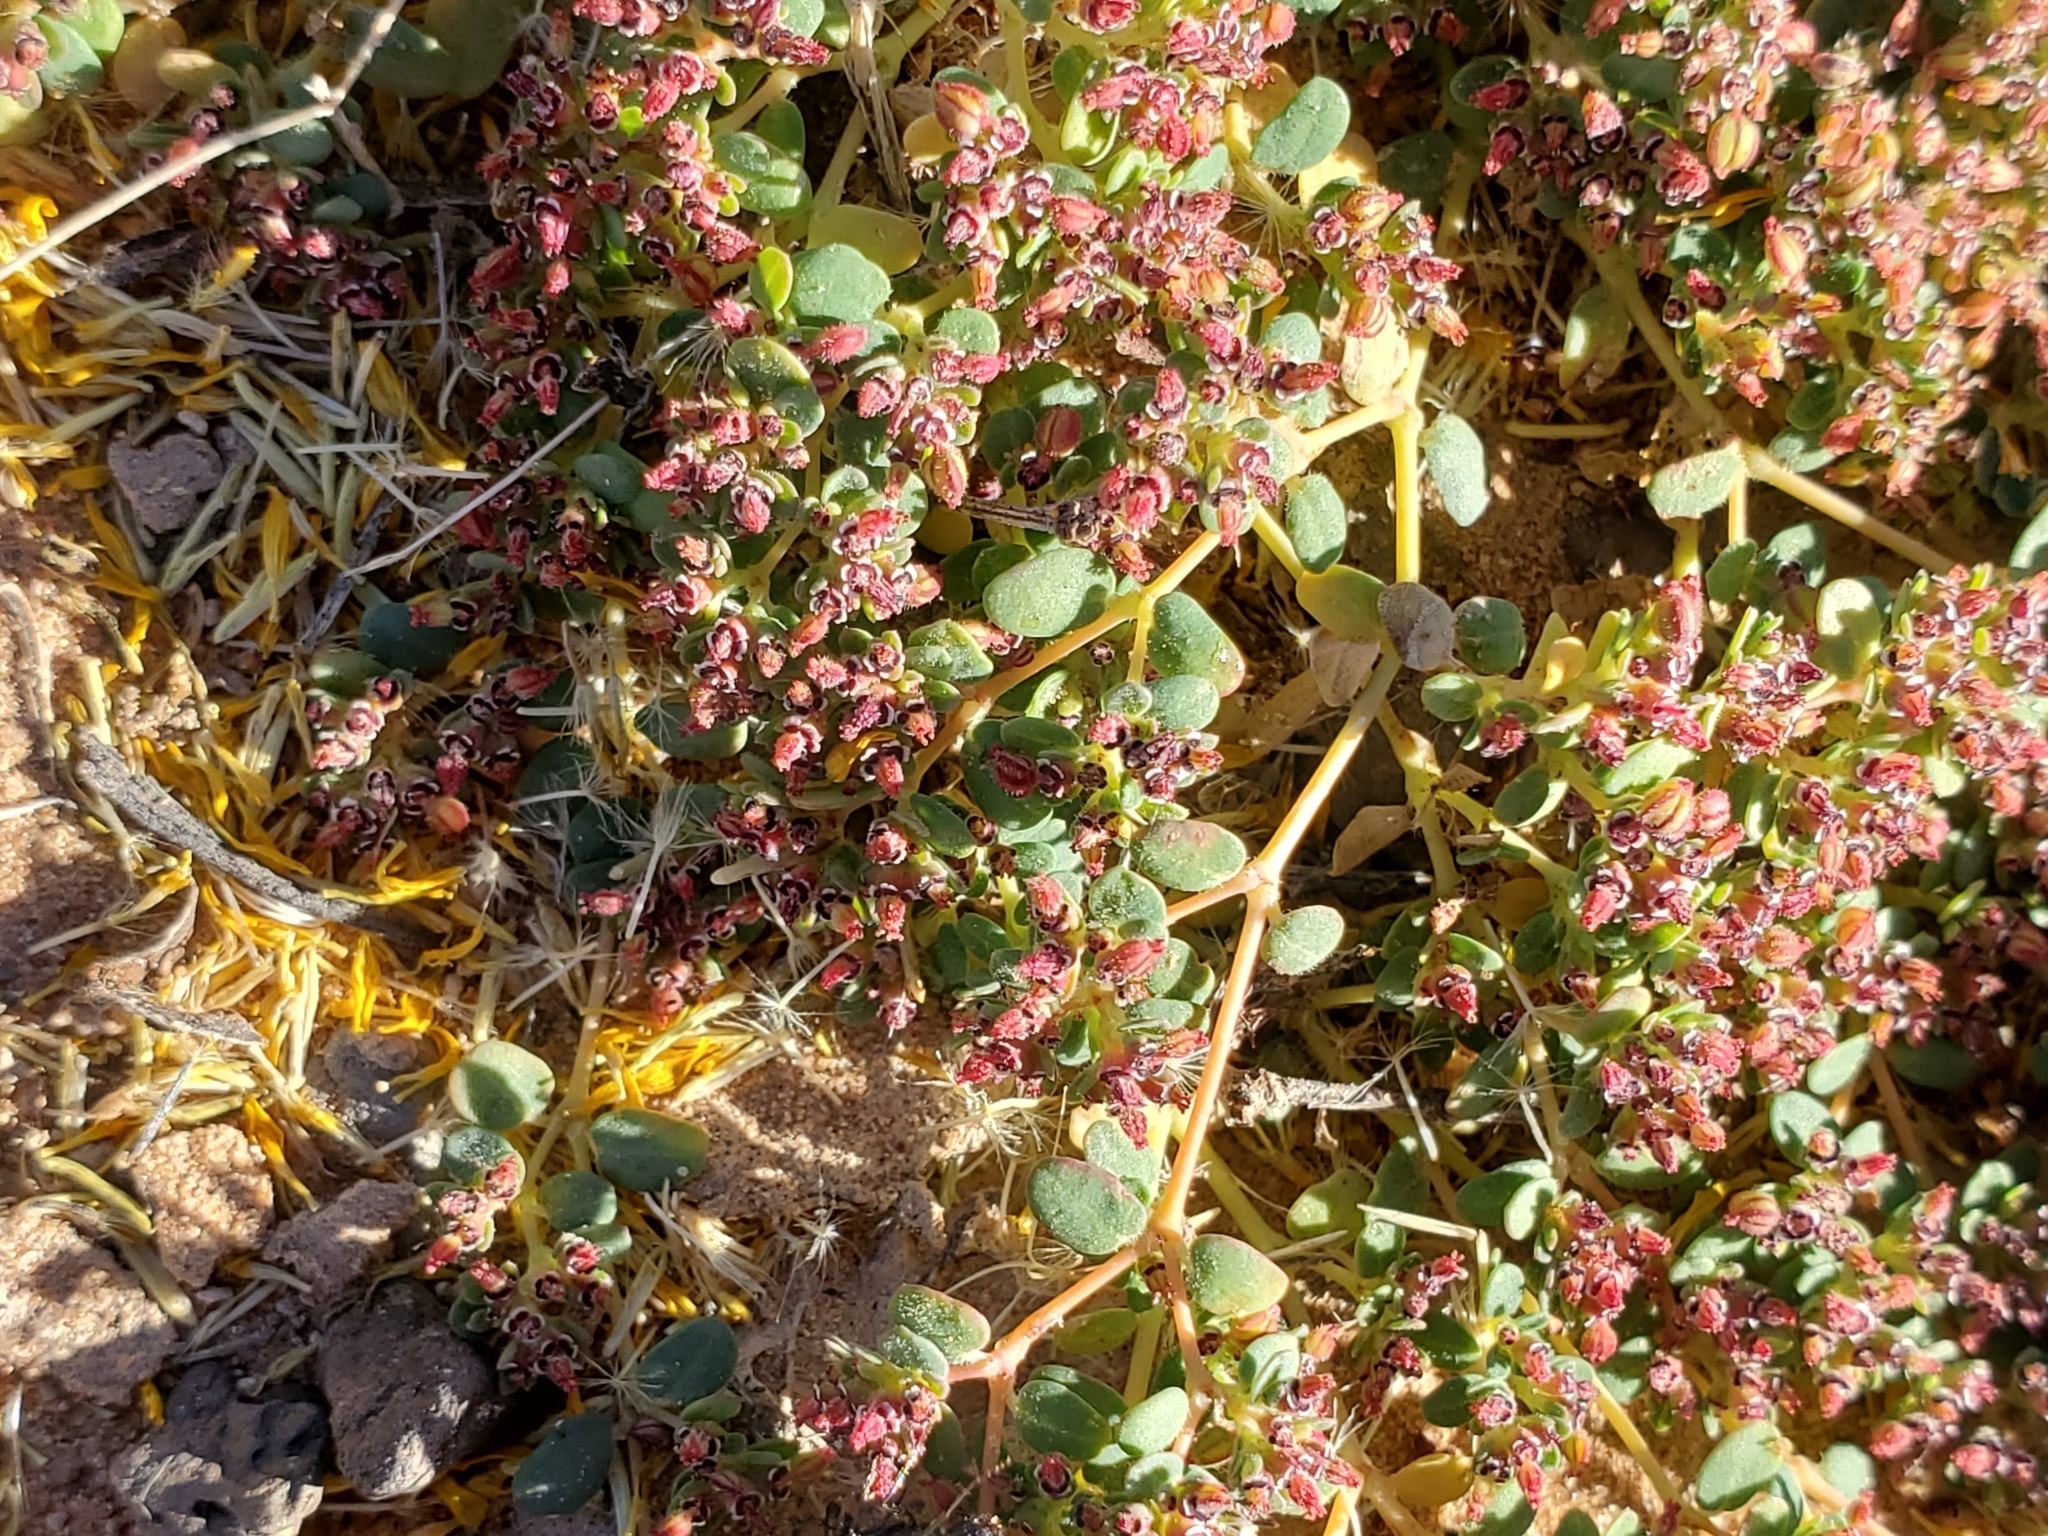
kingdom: Plantae
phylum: Tracheophyta
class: Magnoliopsida
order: Malpighiales
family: Euphorbiaceae
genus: Euphorbia
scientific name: Euphorbia polycarpa
